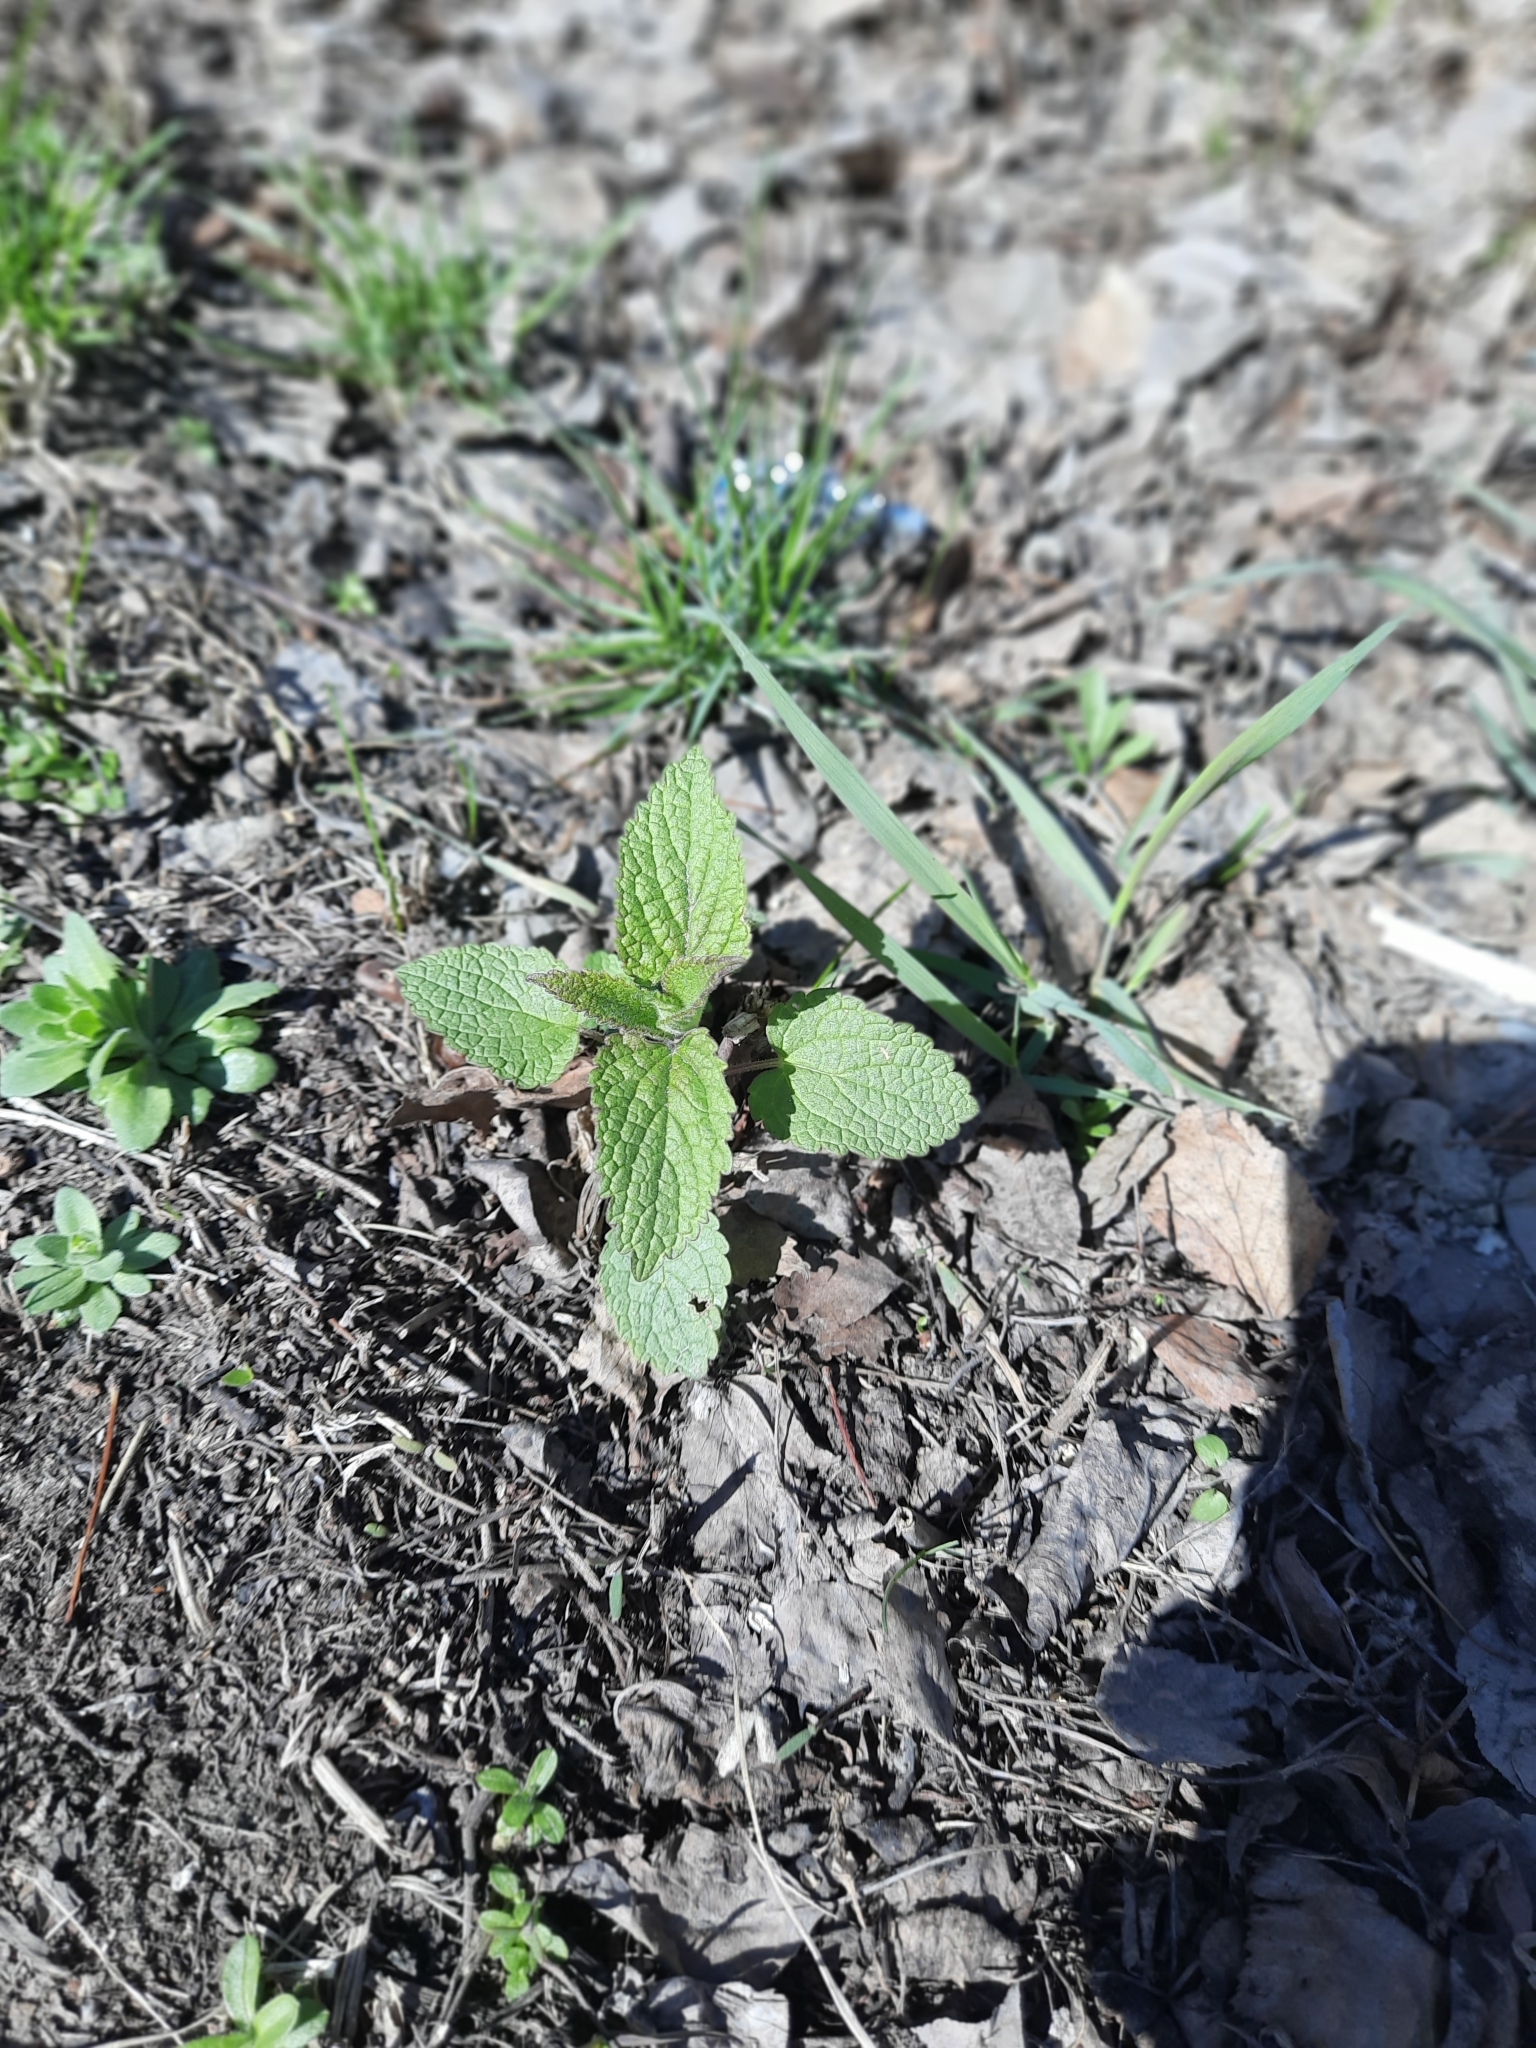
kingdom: Plantae
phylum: Tracheophyta
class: Magnoliopsida
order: Lamiales
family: Lamiaceae
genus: Lamium
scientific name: Lamium album
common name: White dead-nettle
